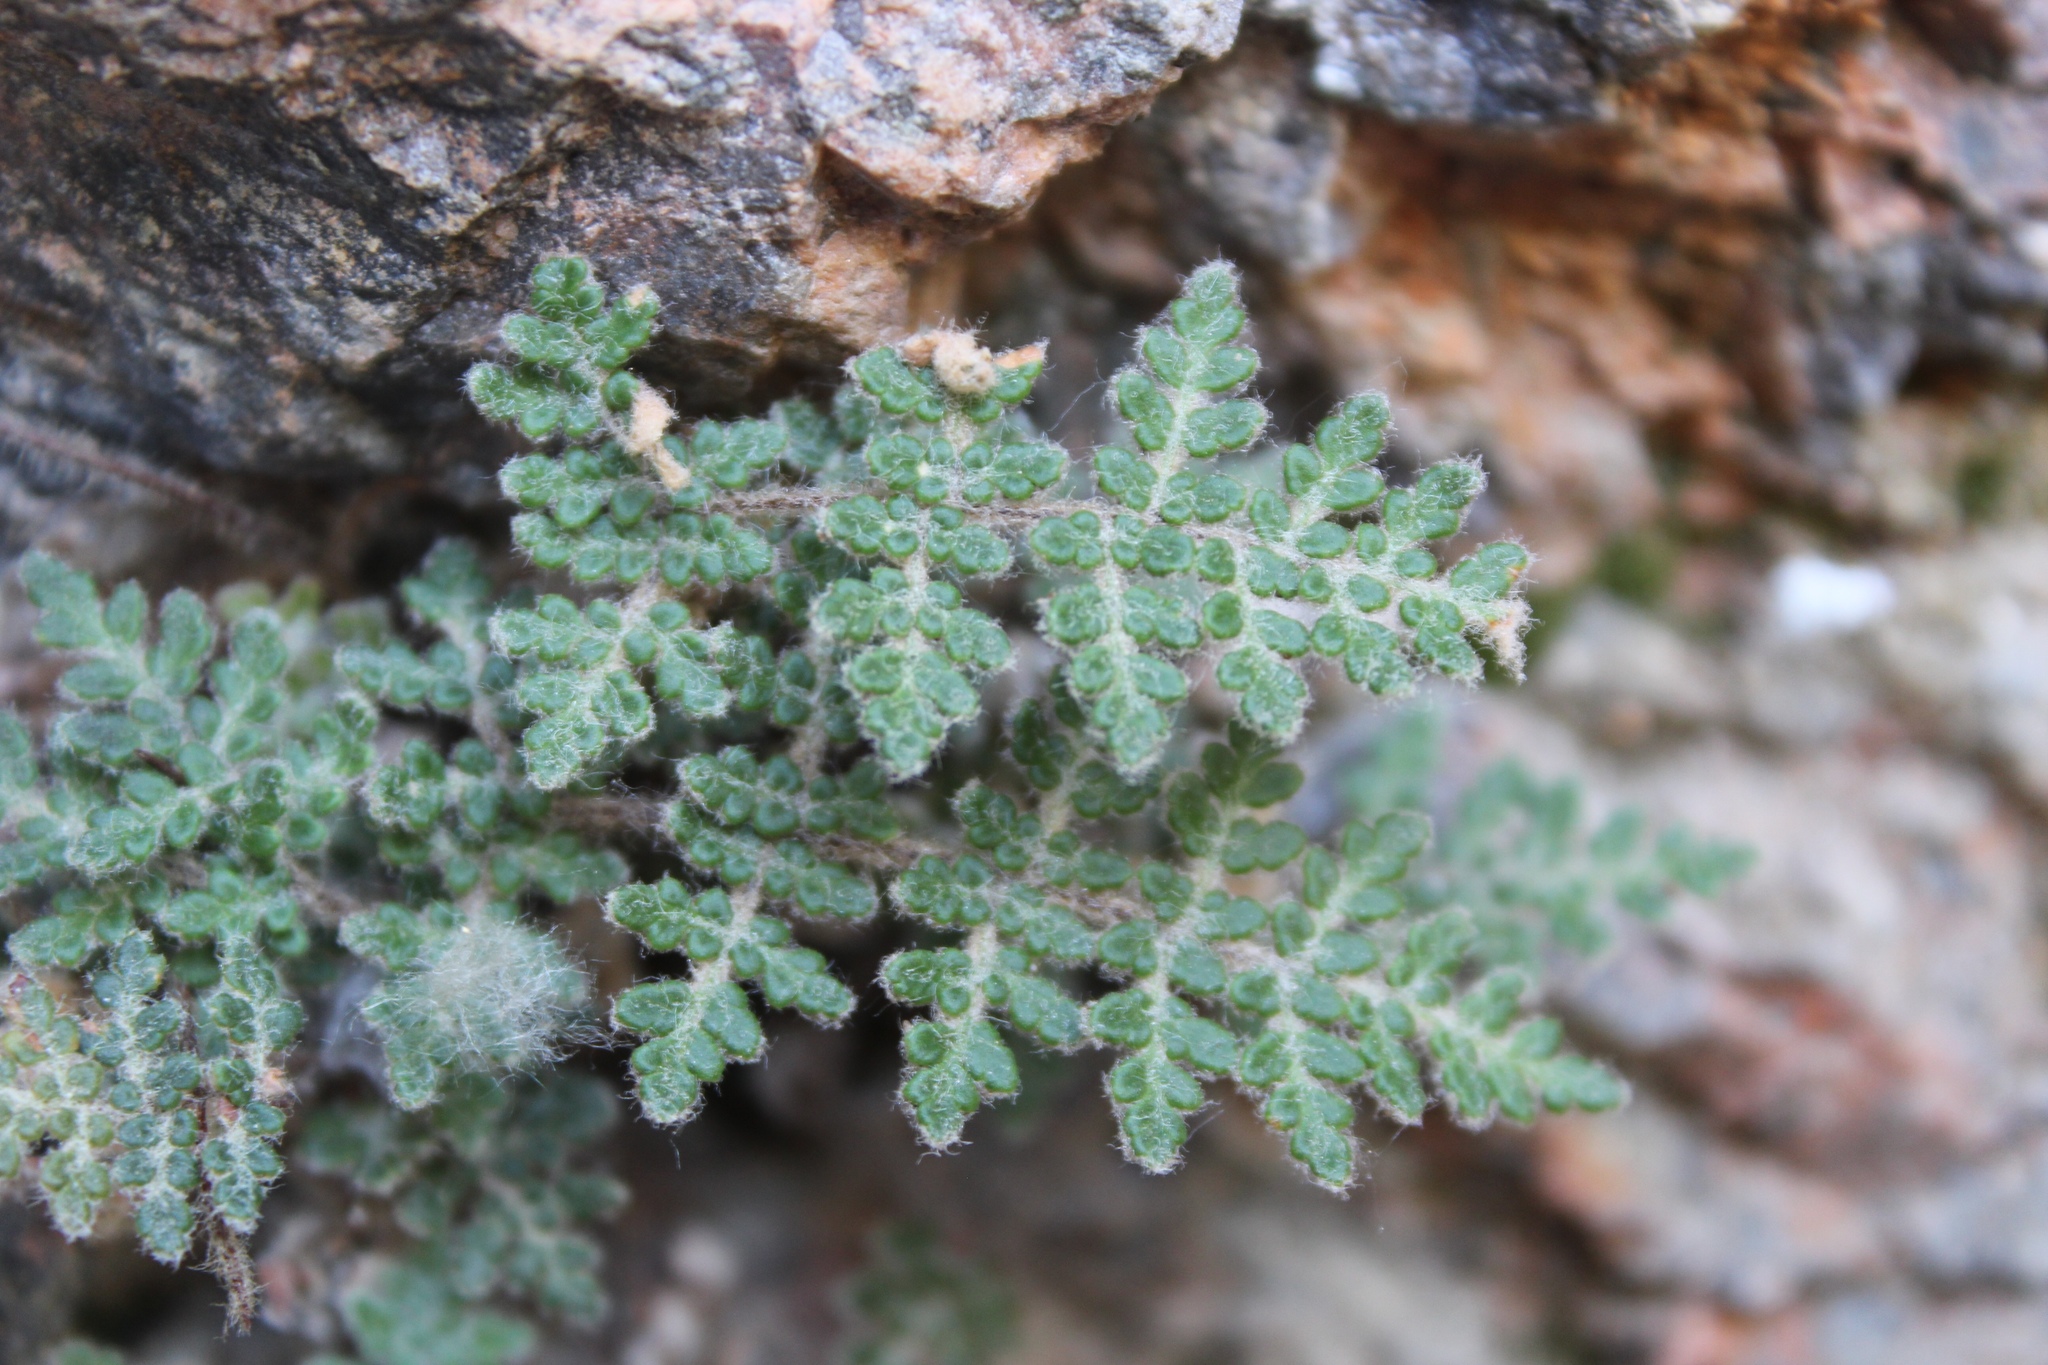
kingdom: Plantae
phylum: Tracheophyta
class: Polypodiopsida
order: Polypodiales
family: Pteridaceae
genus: Myriopteris
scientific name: Myriopteris gracilis
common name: Fee's lip fern
